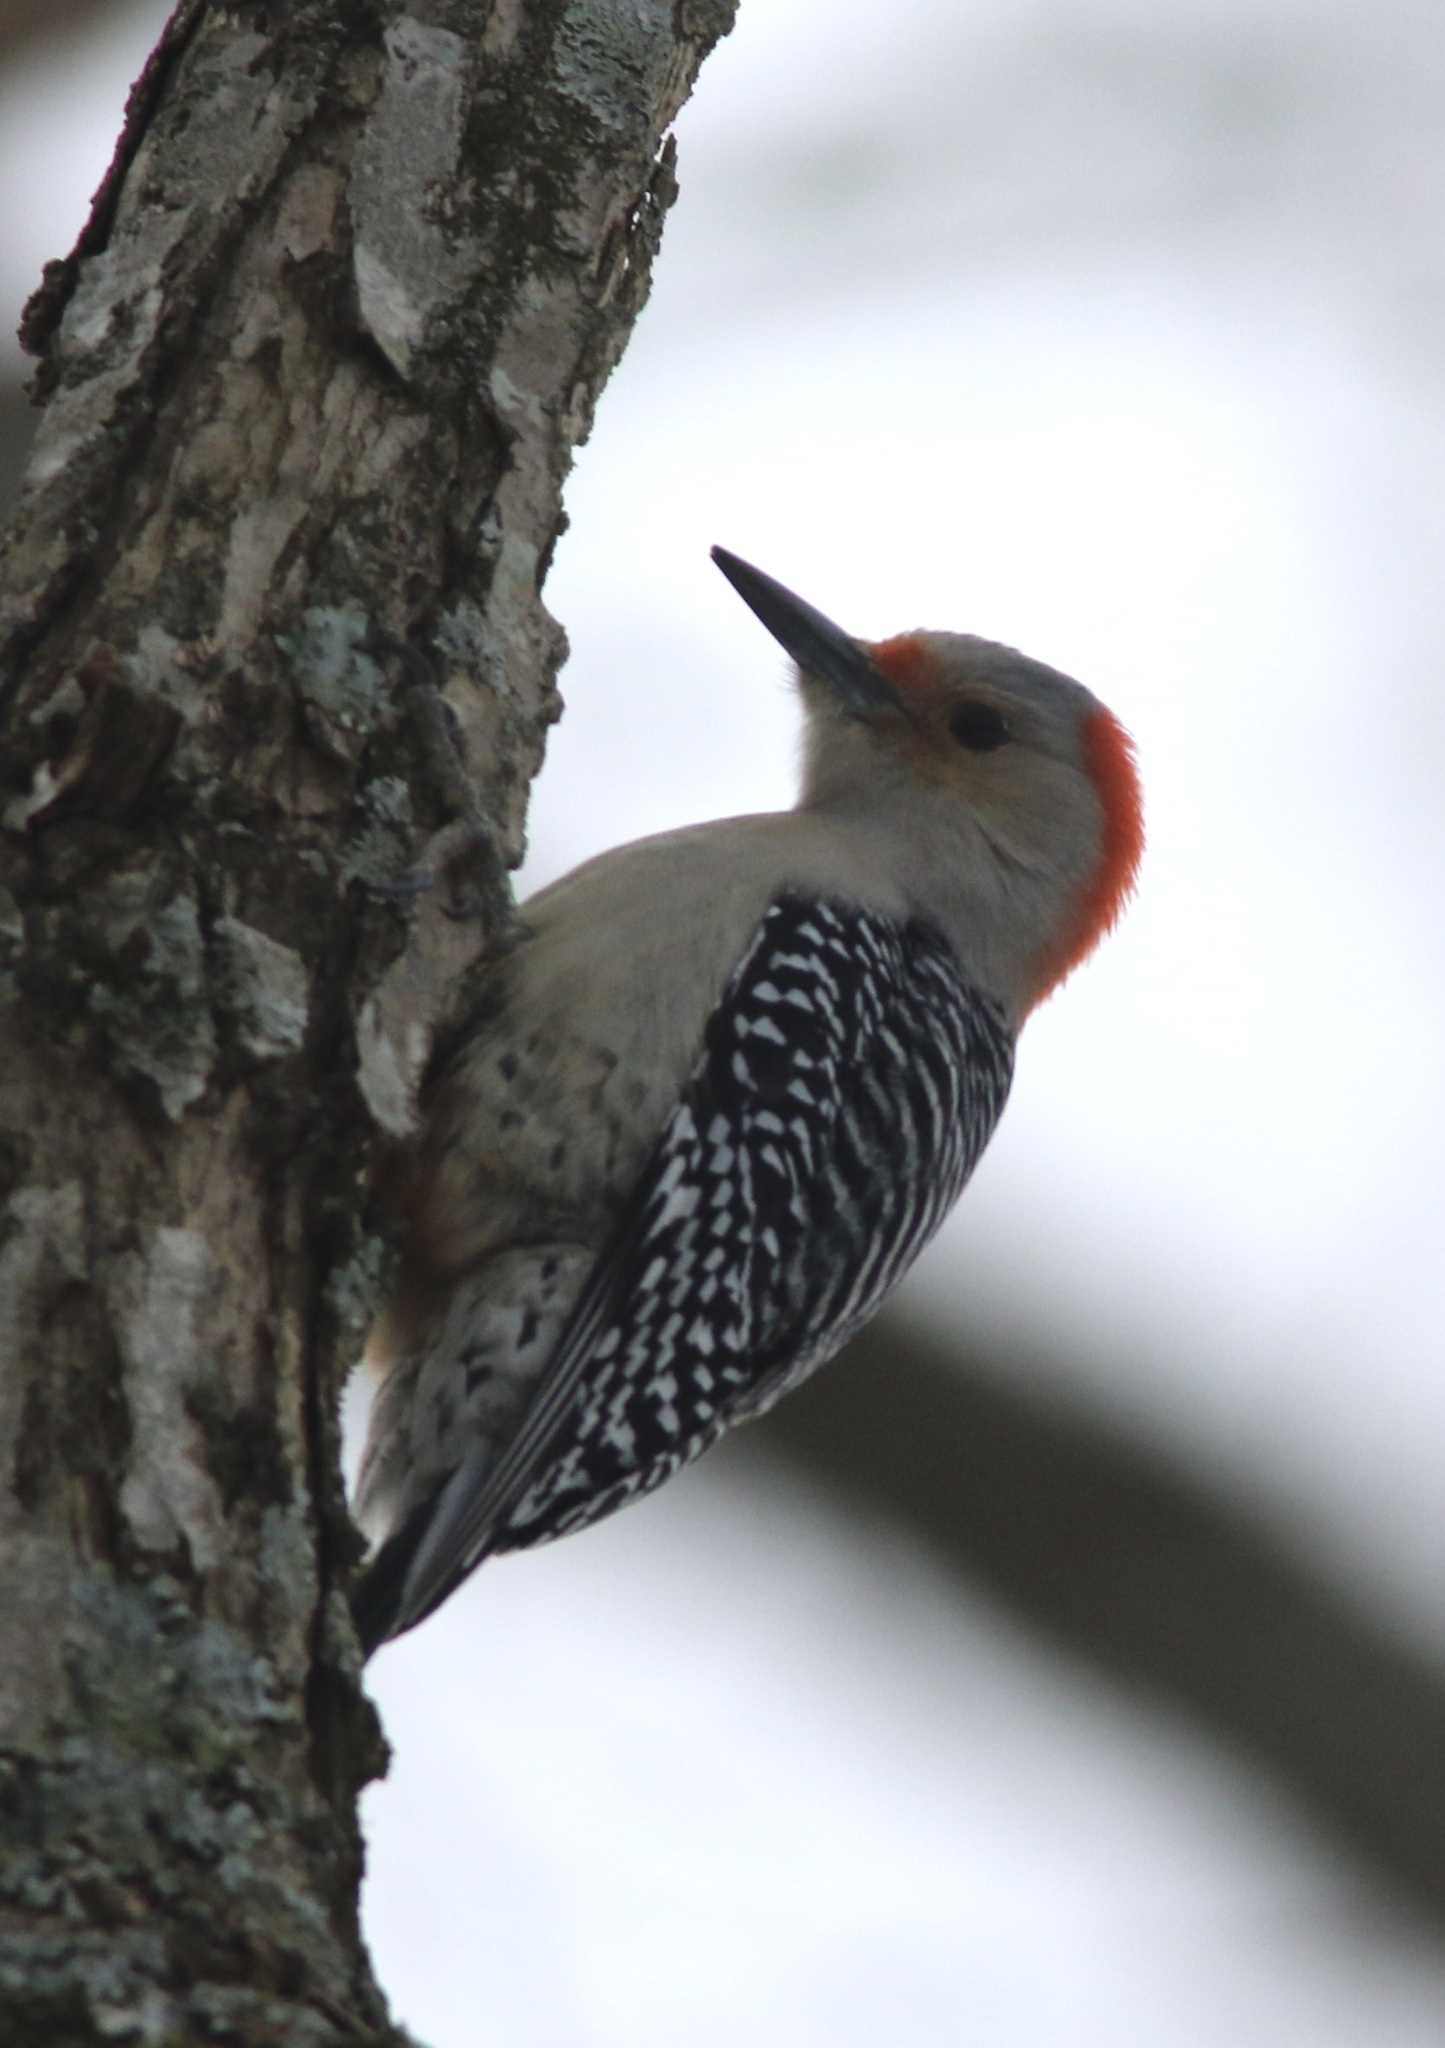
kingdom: Animalia
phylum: Chordata
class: Aves
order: Piciformes
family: Picidae
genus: Melanerpes
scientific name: Melanerpes carolinus
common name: Red-bellied woodpecker
